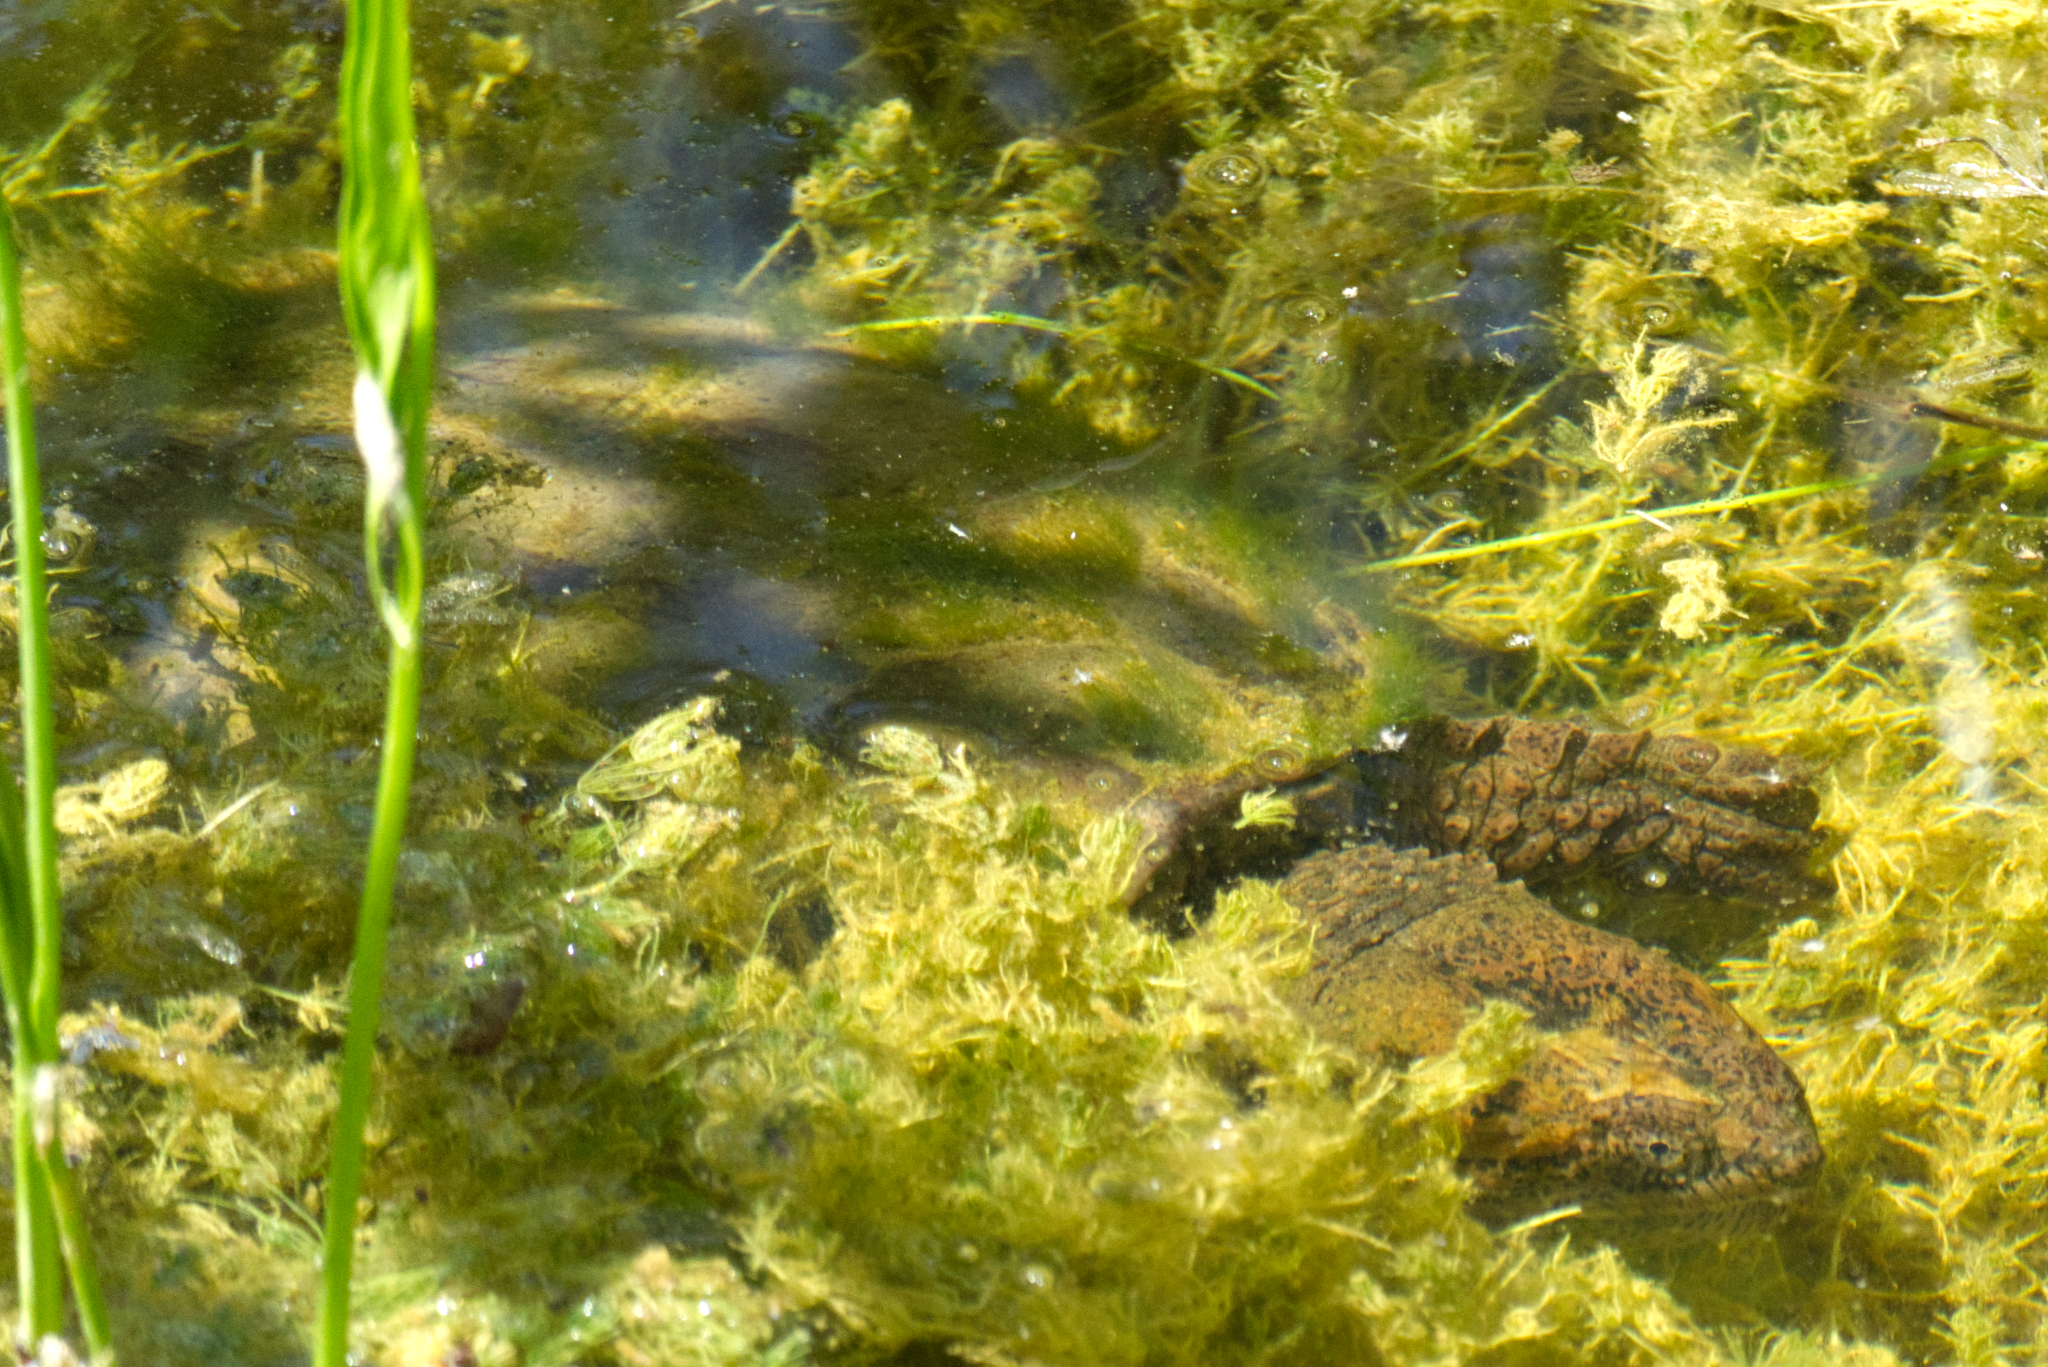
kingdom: Animalia
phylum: Chordata
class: Testudines
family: Chelydridae
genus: Chelydra
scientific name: Chelydra serpentina
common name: Common snapping turtle
